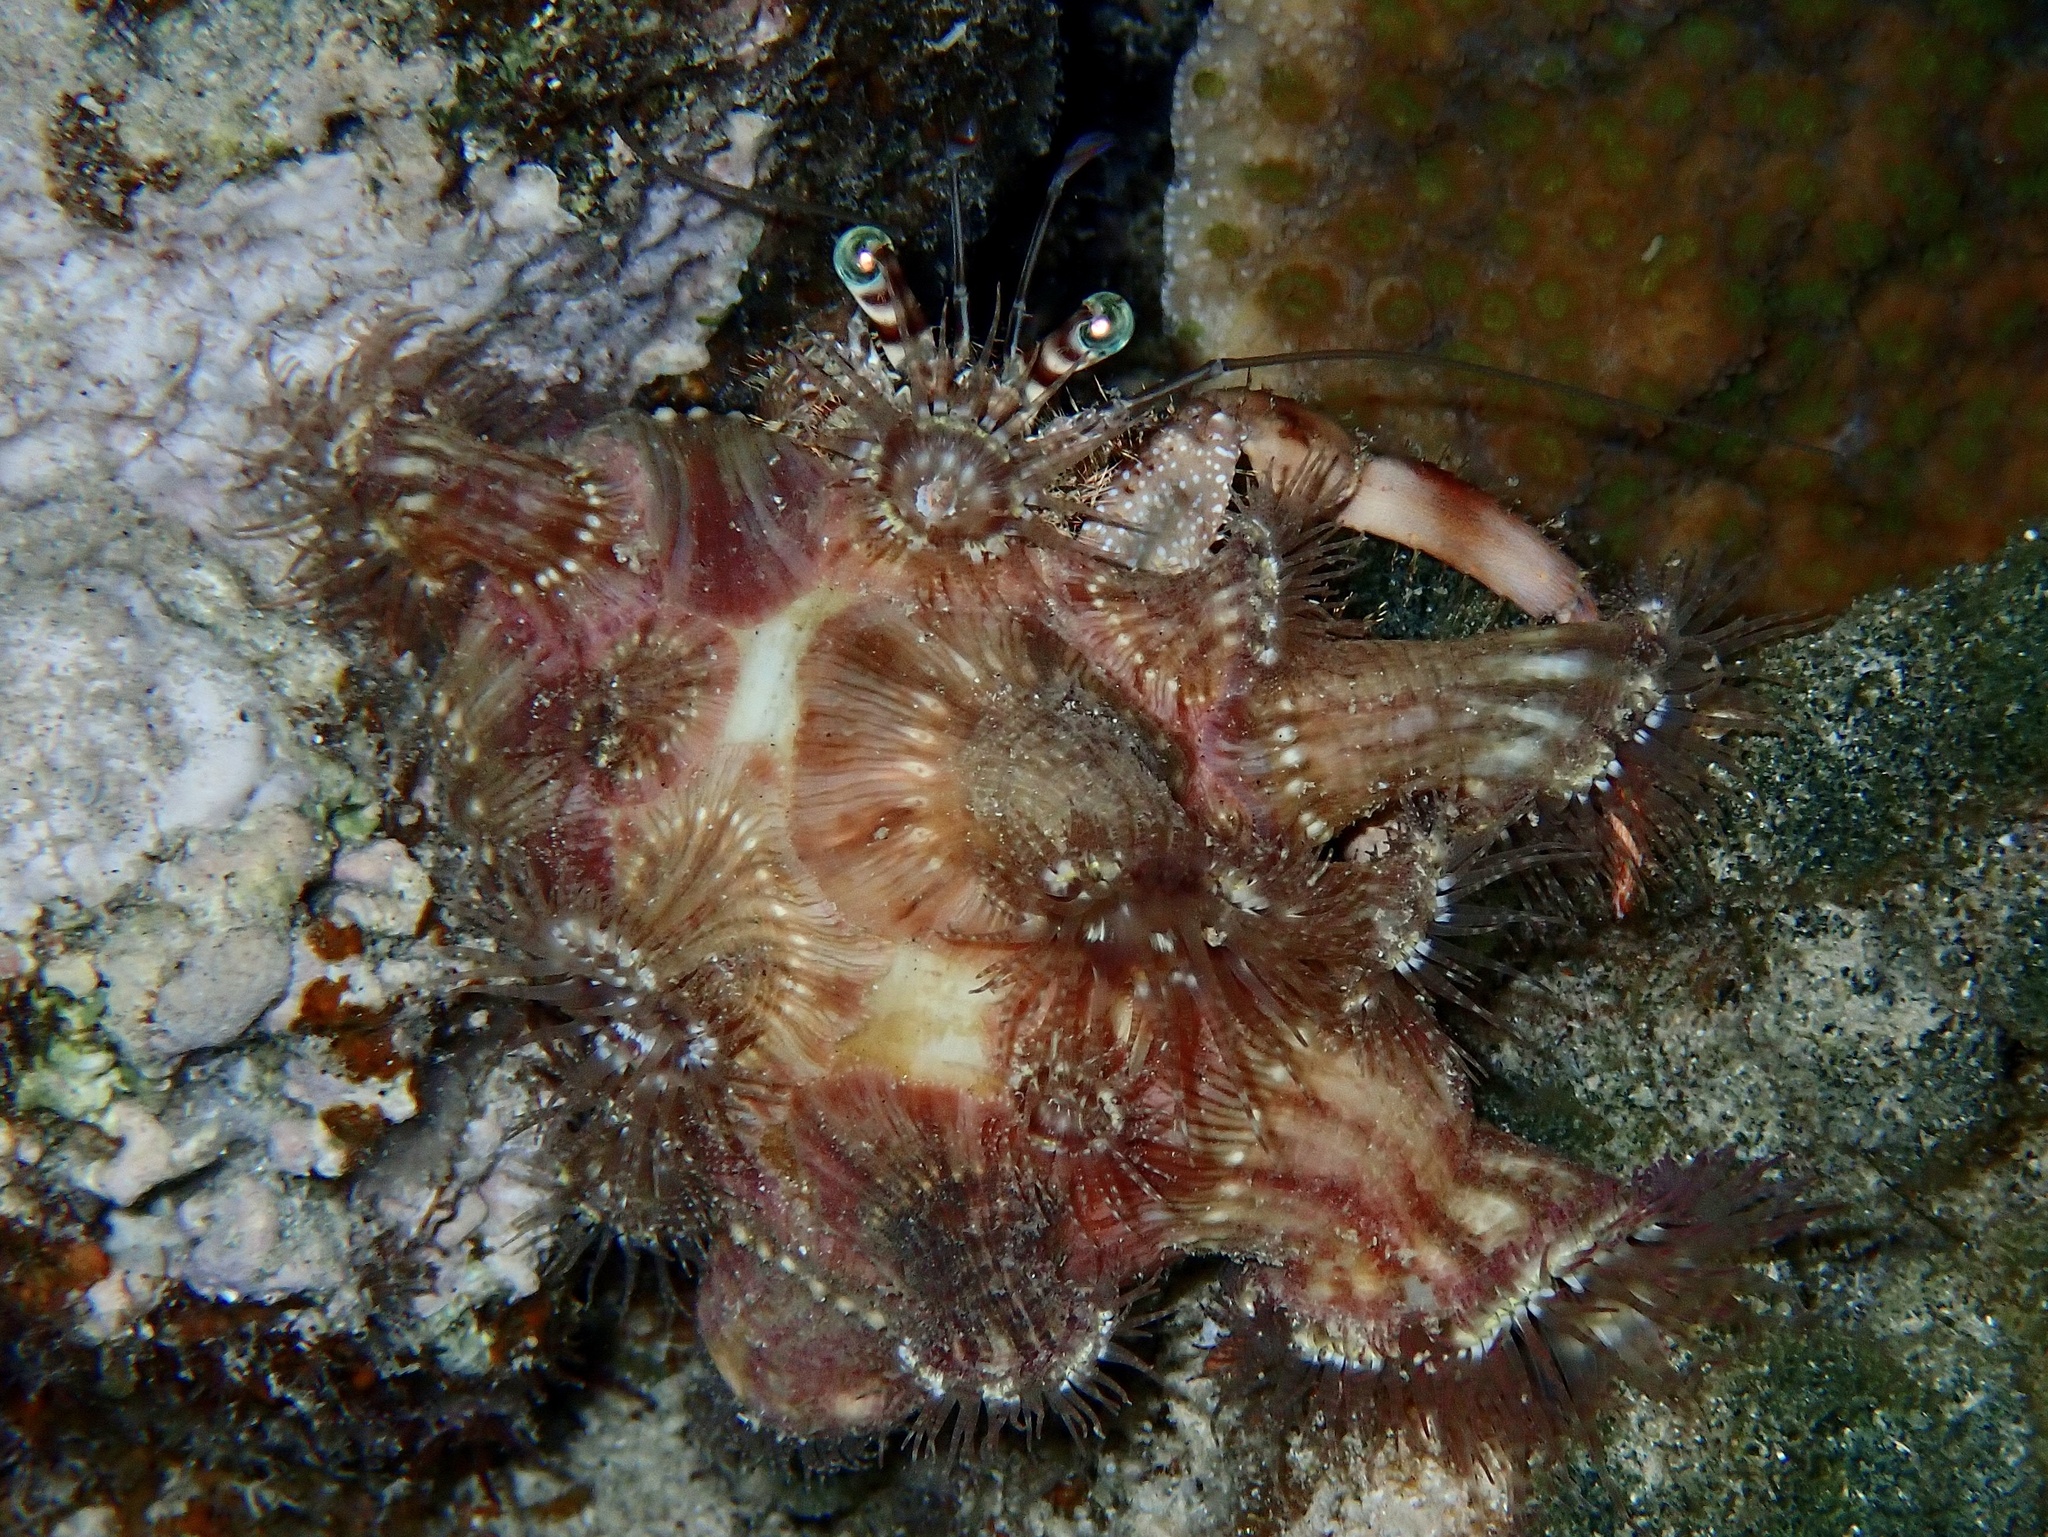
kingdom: Animalia
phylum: Arthropoda
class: Malacostraca
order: Decapoda
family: Diogenidae
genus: Dardanus
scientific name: Dardanus tinctor
